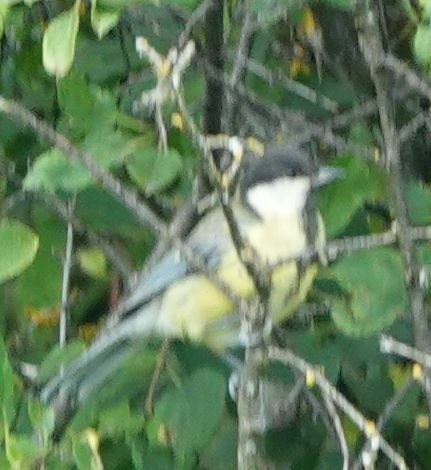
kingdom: Animalia
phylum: Chordata
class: Aves
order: Passeriformes
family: Paridae
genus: Parus
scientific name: Parus major
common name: Great tit
